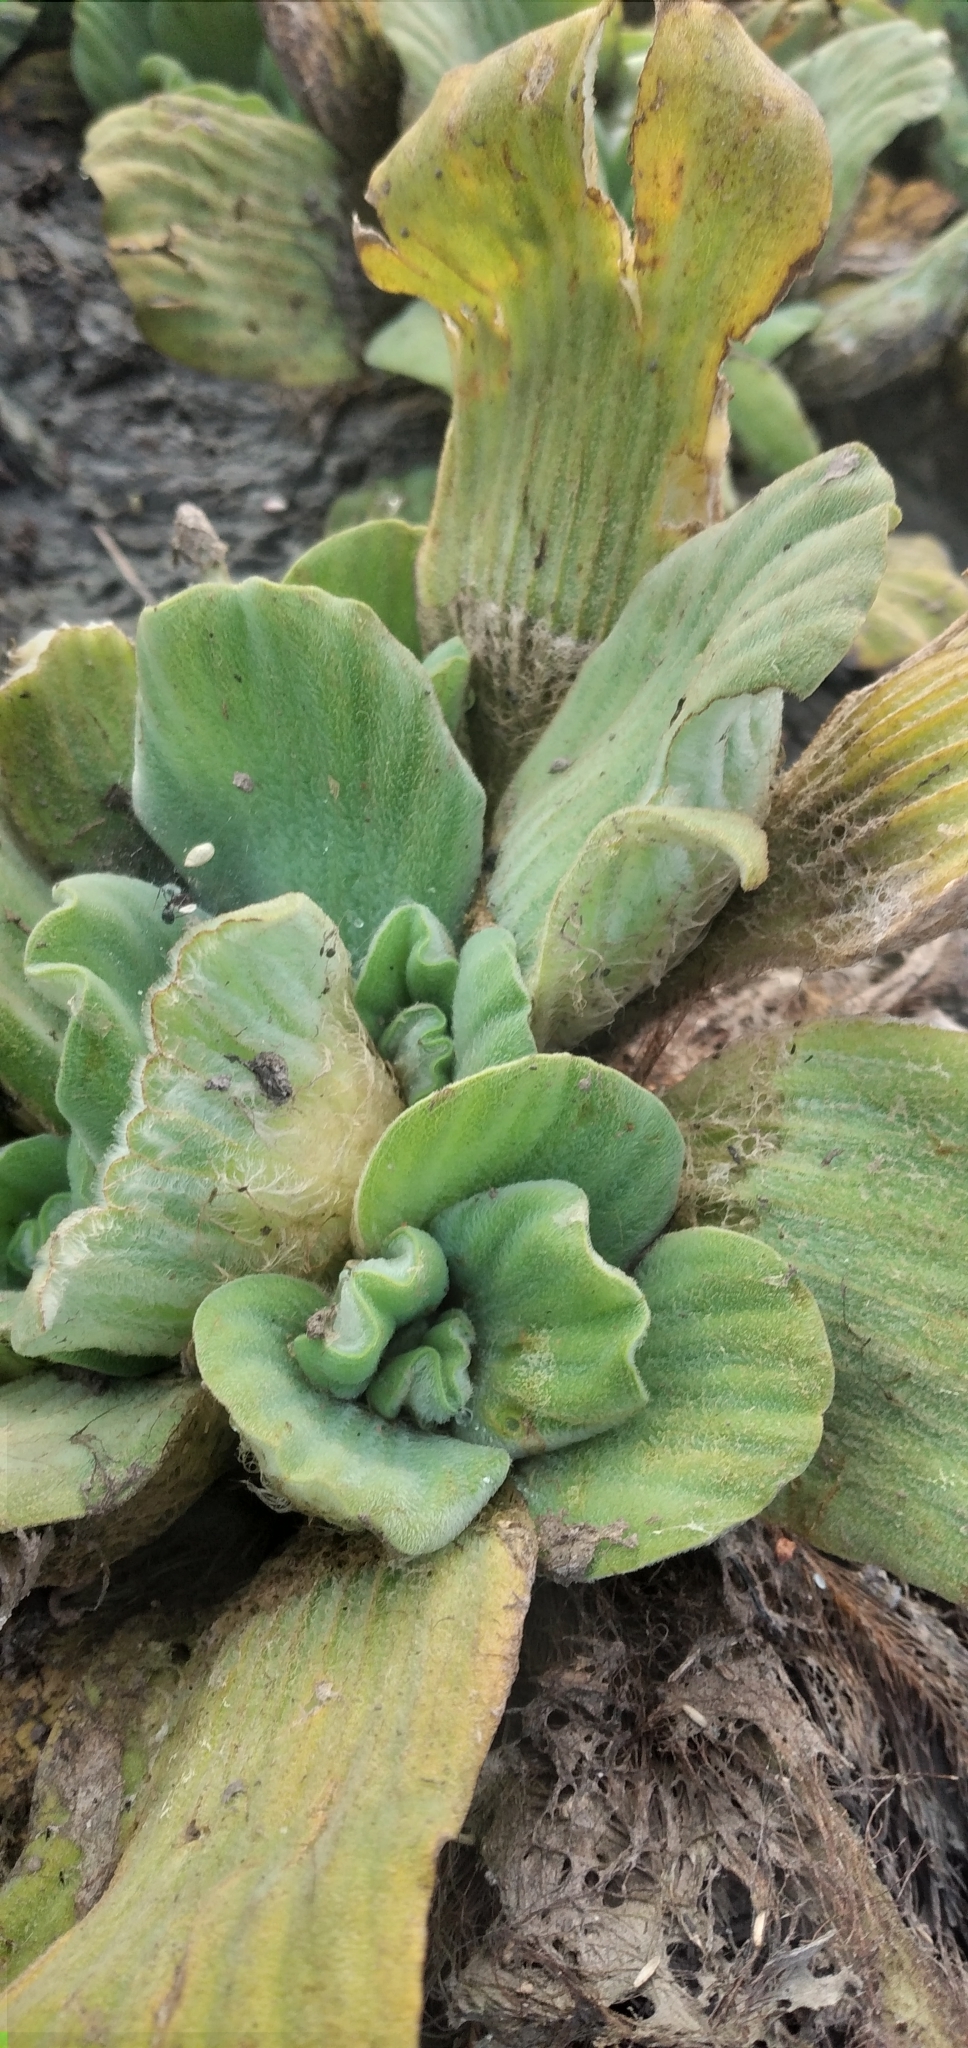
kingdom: Plantae
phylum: Tracheophyta
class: Liliopsida
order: Alismatales
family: Araceae
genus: Pistia
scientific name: Pistia stratiotes
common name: Water lettuce
